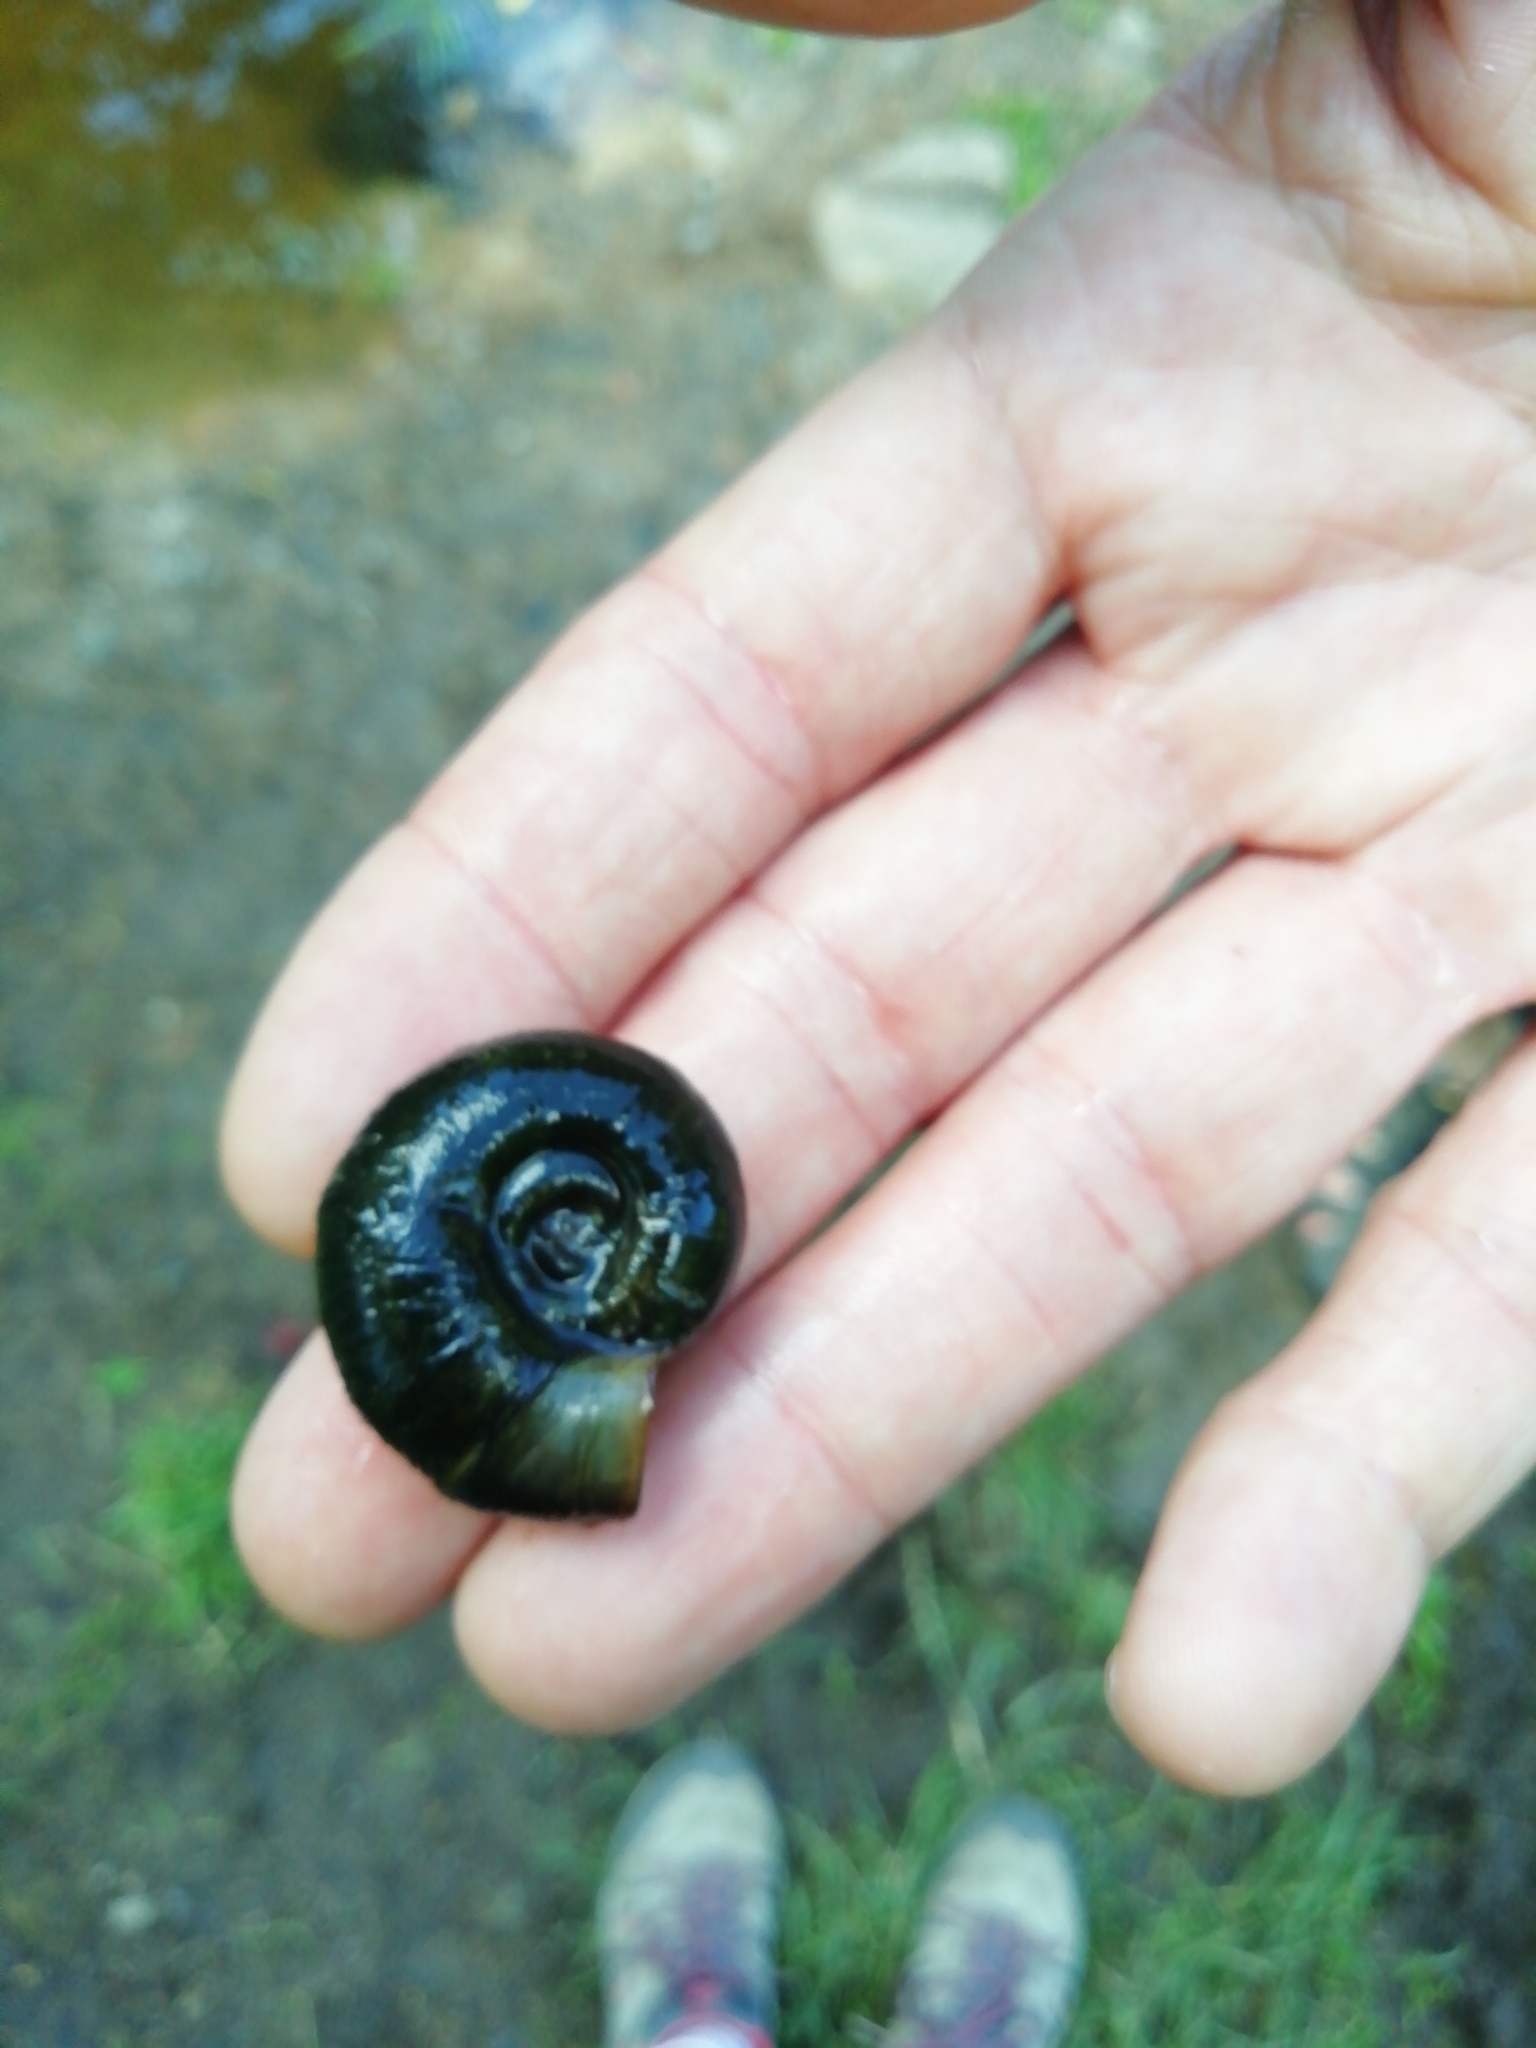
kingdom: Animalia
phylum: Mollusca
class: Gastropoda
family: Planorbidae
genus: Planorbarius
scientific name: Planorbarius corneus
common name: Great ramshorn
